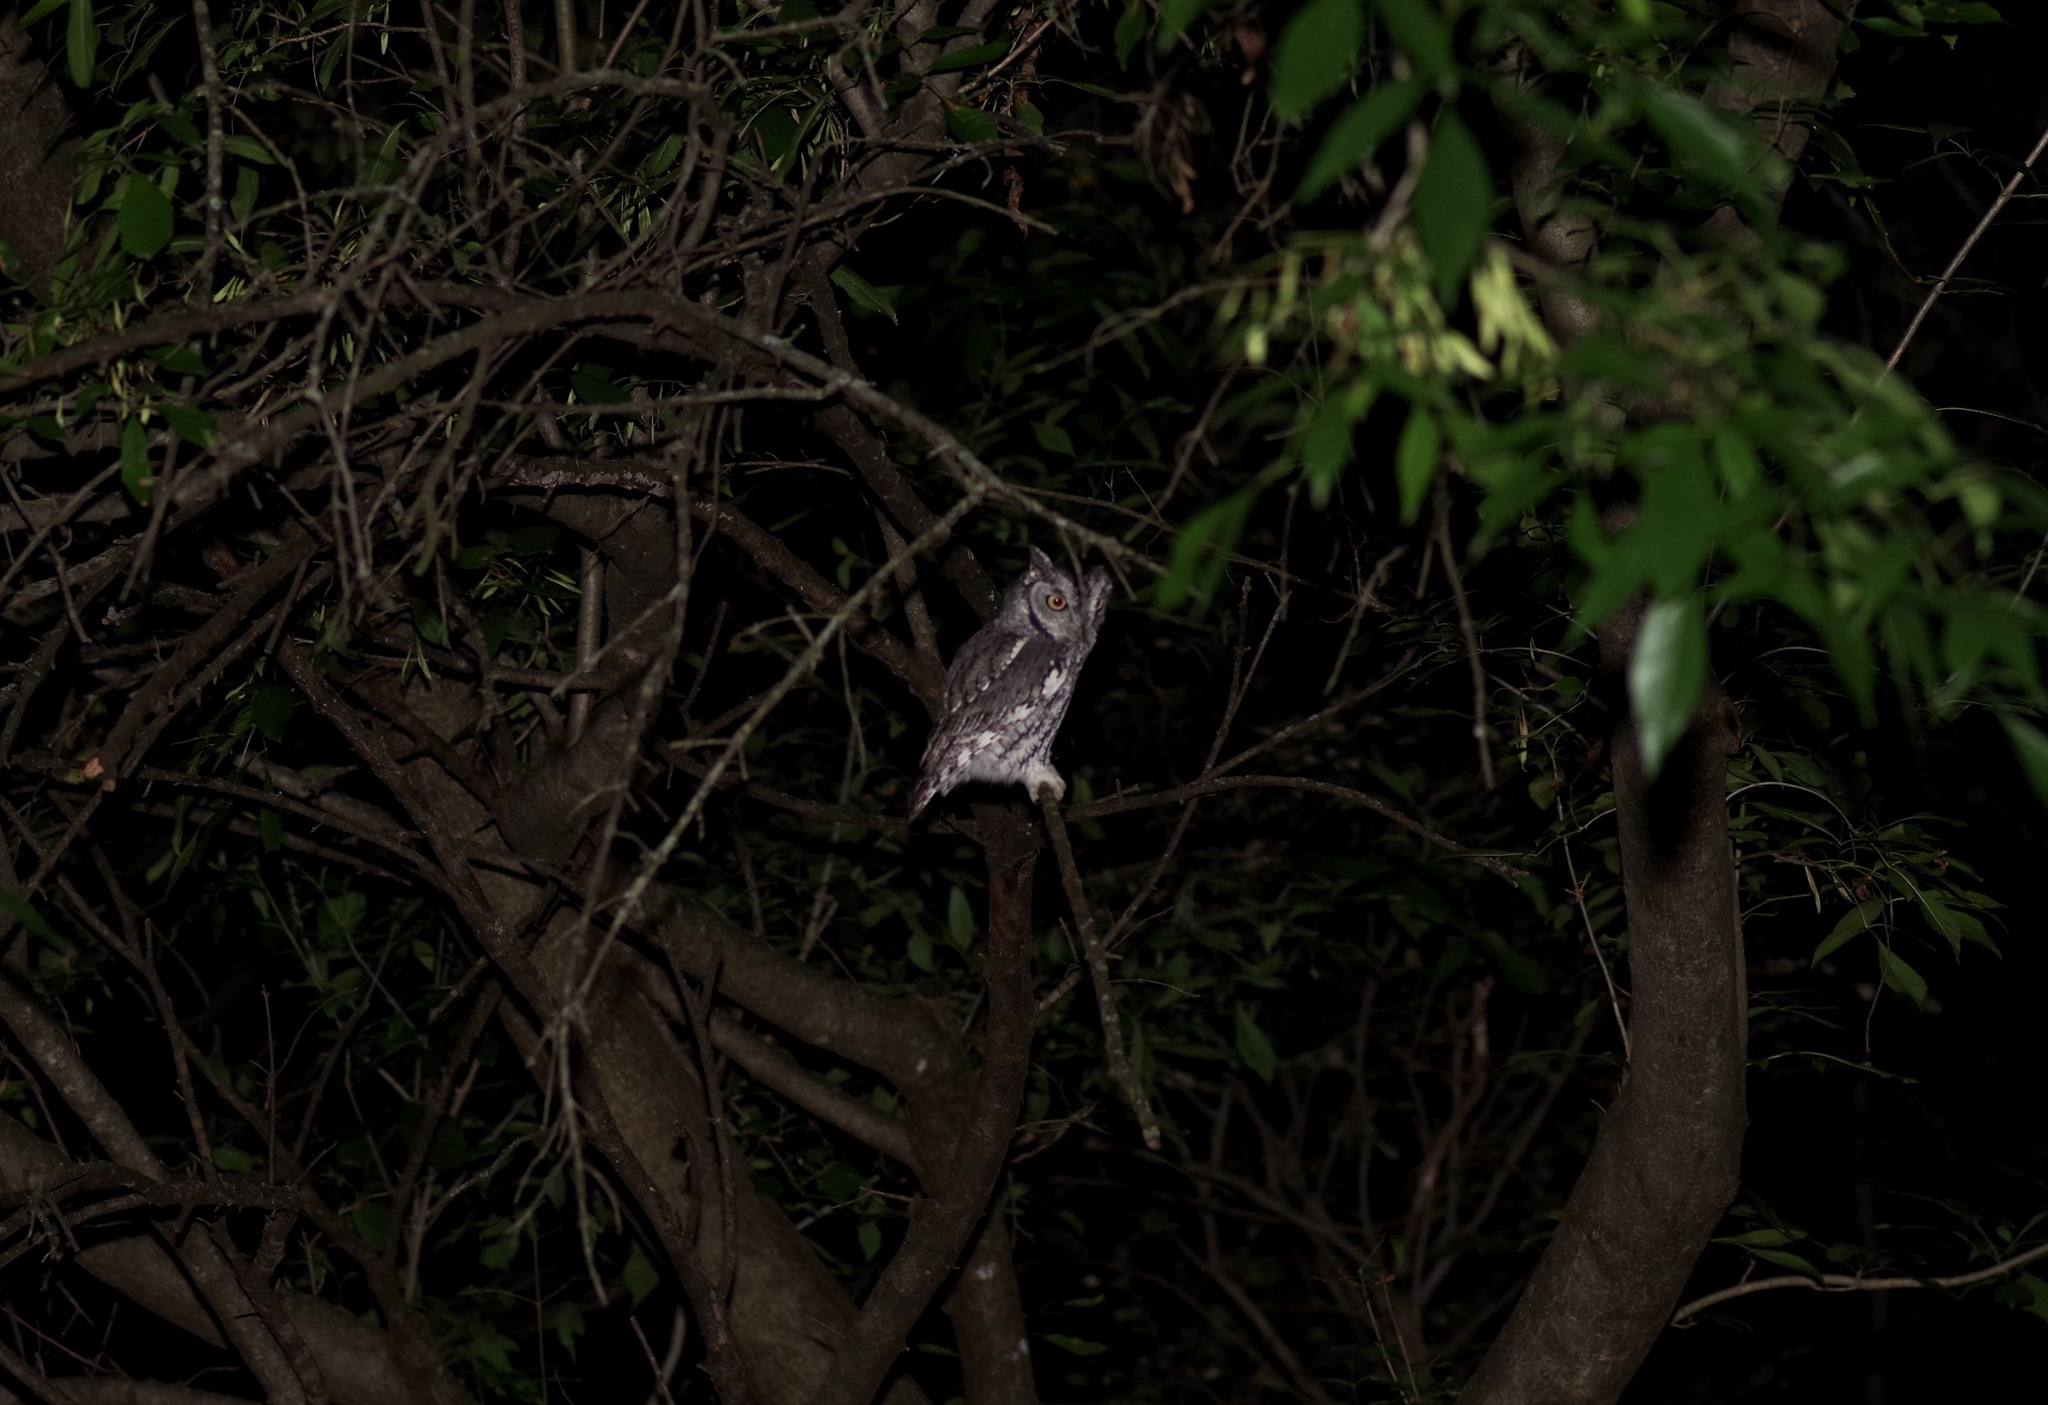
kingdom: Animalia
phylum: Chordata
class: Aves
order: Strigiformes
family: Strigidae
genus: Megascops
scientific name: Megascops asio
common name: Eastern screech-owl
